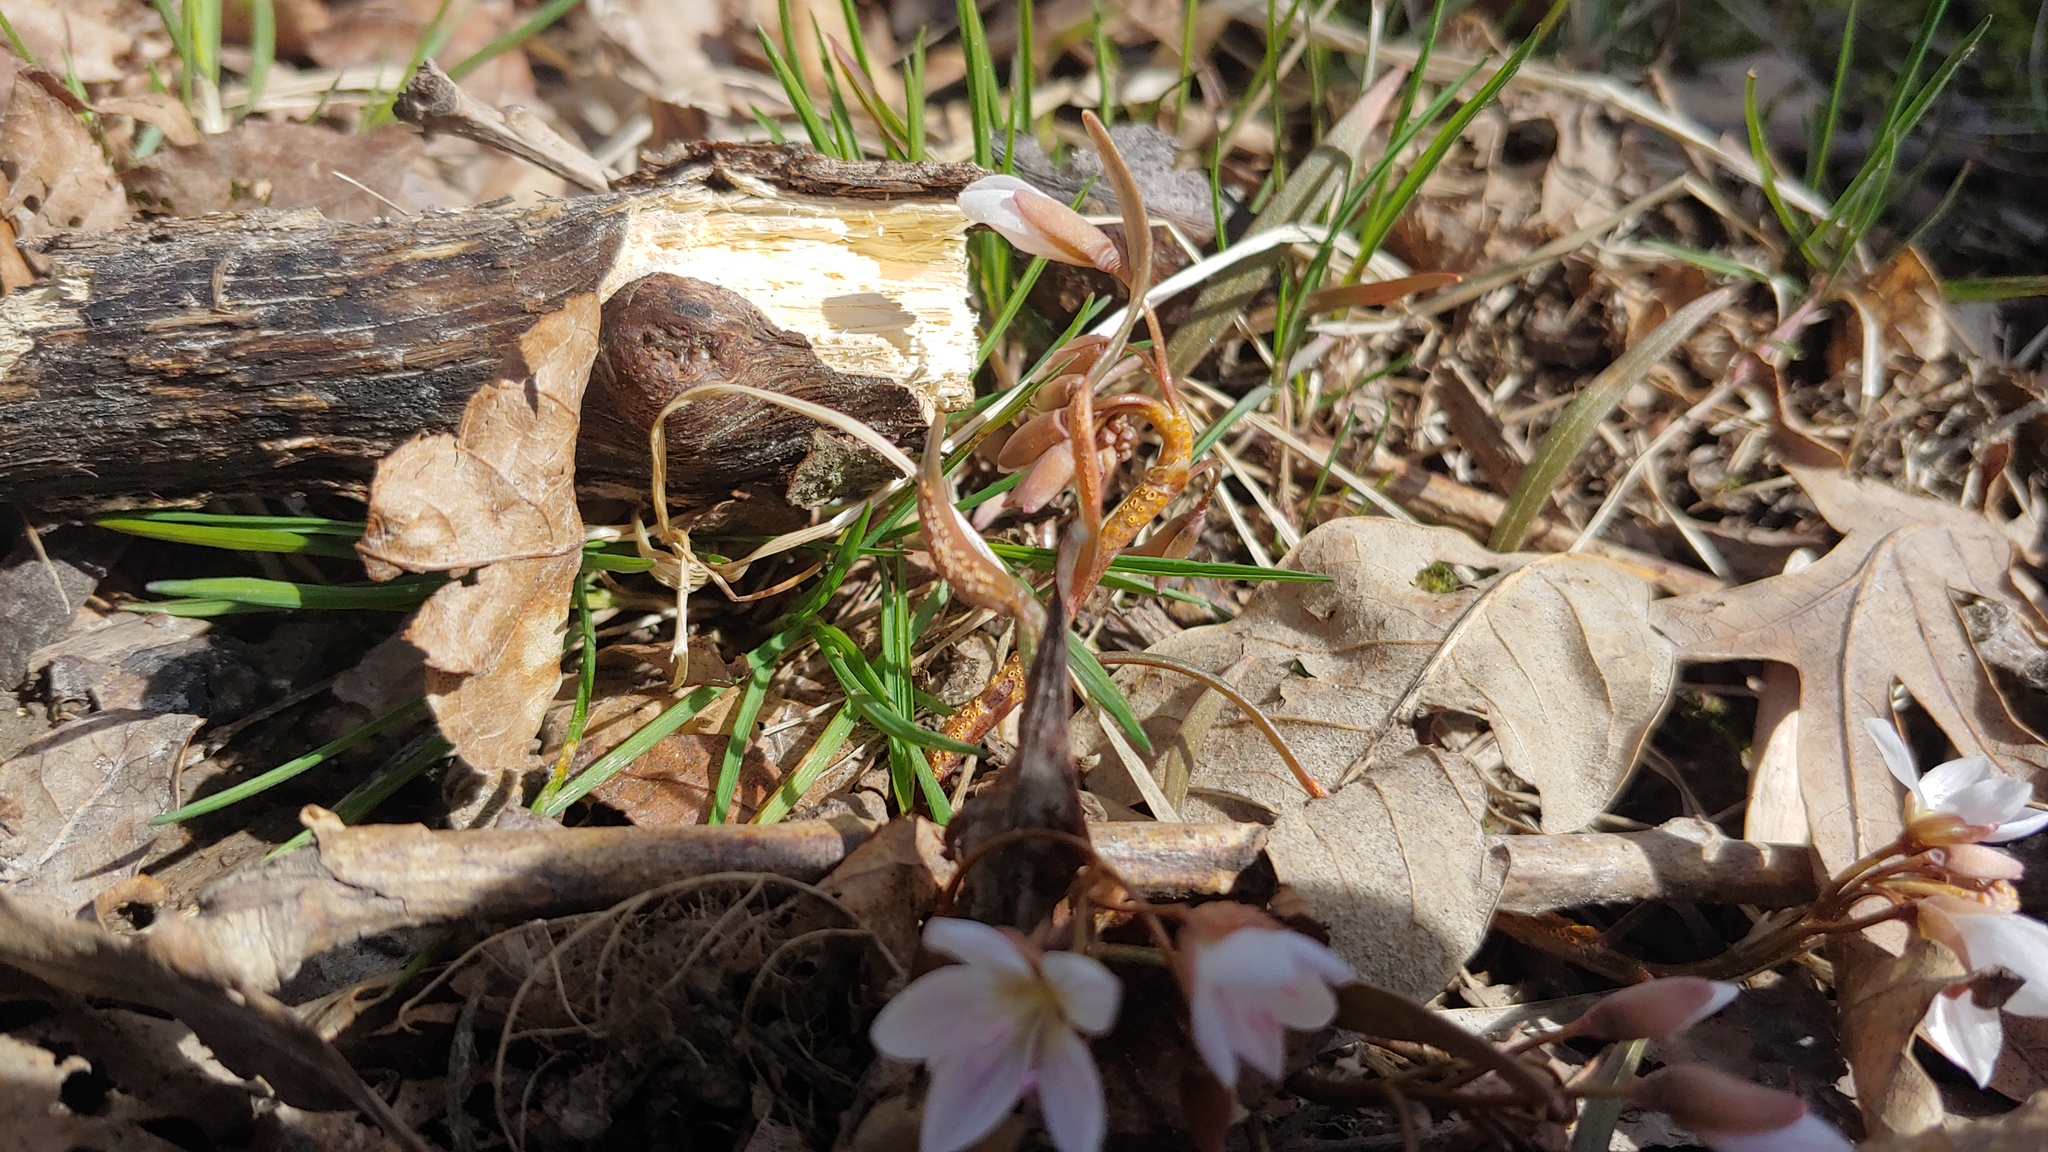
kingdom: Fungi
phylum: Basidiomycota
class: Pucciniomycetes
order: Pucciniales
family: Pucciniaceae
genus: Puccinia
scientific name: Puccinia mariae-wilsoniae
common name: Spring beauty rust
